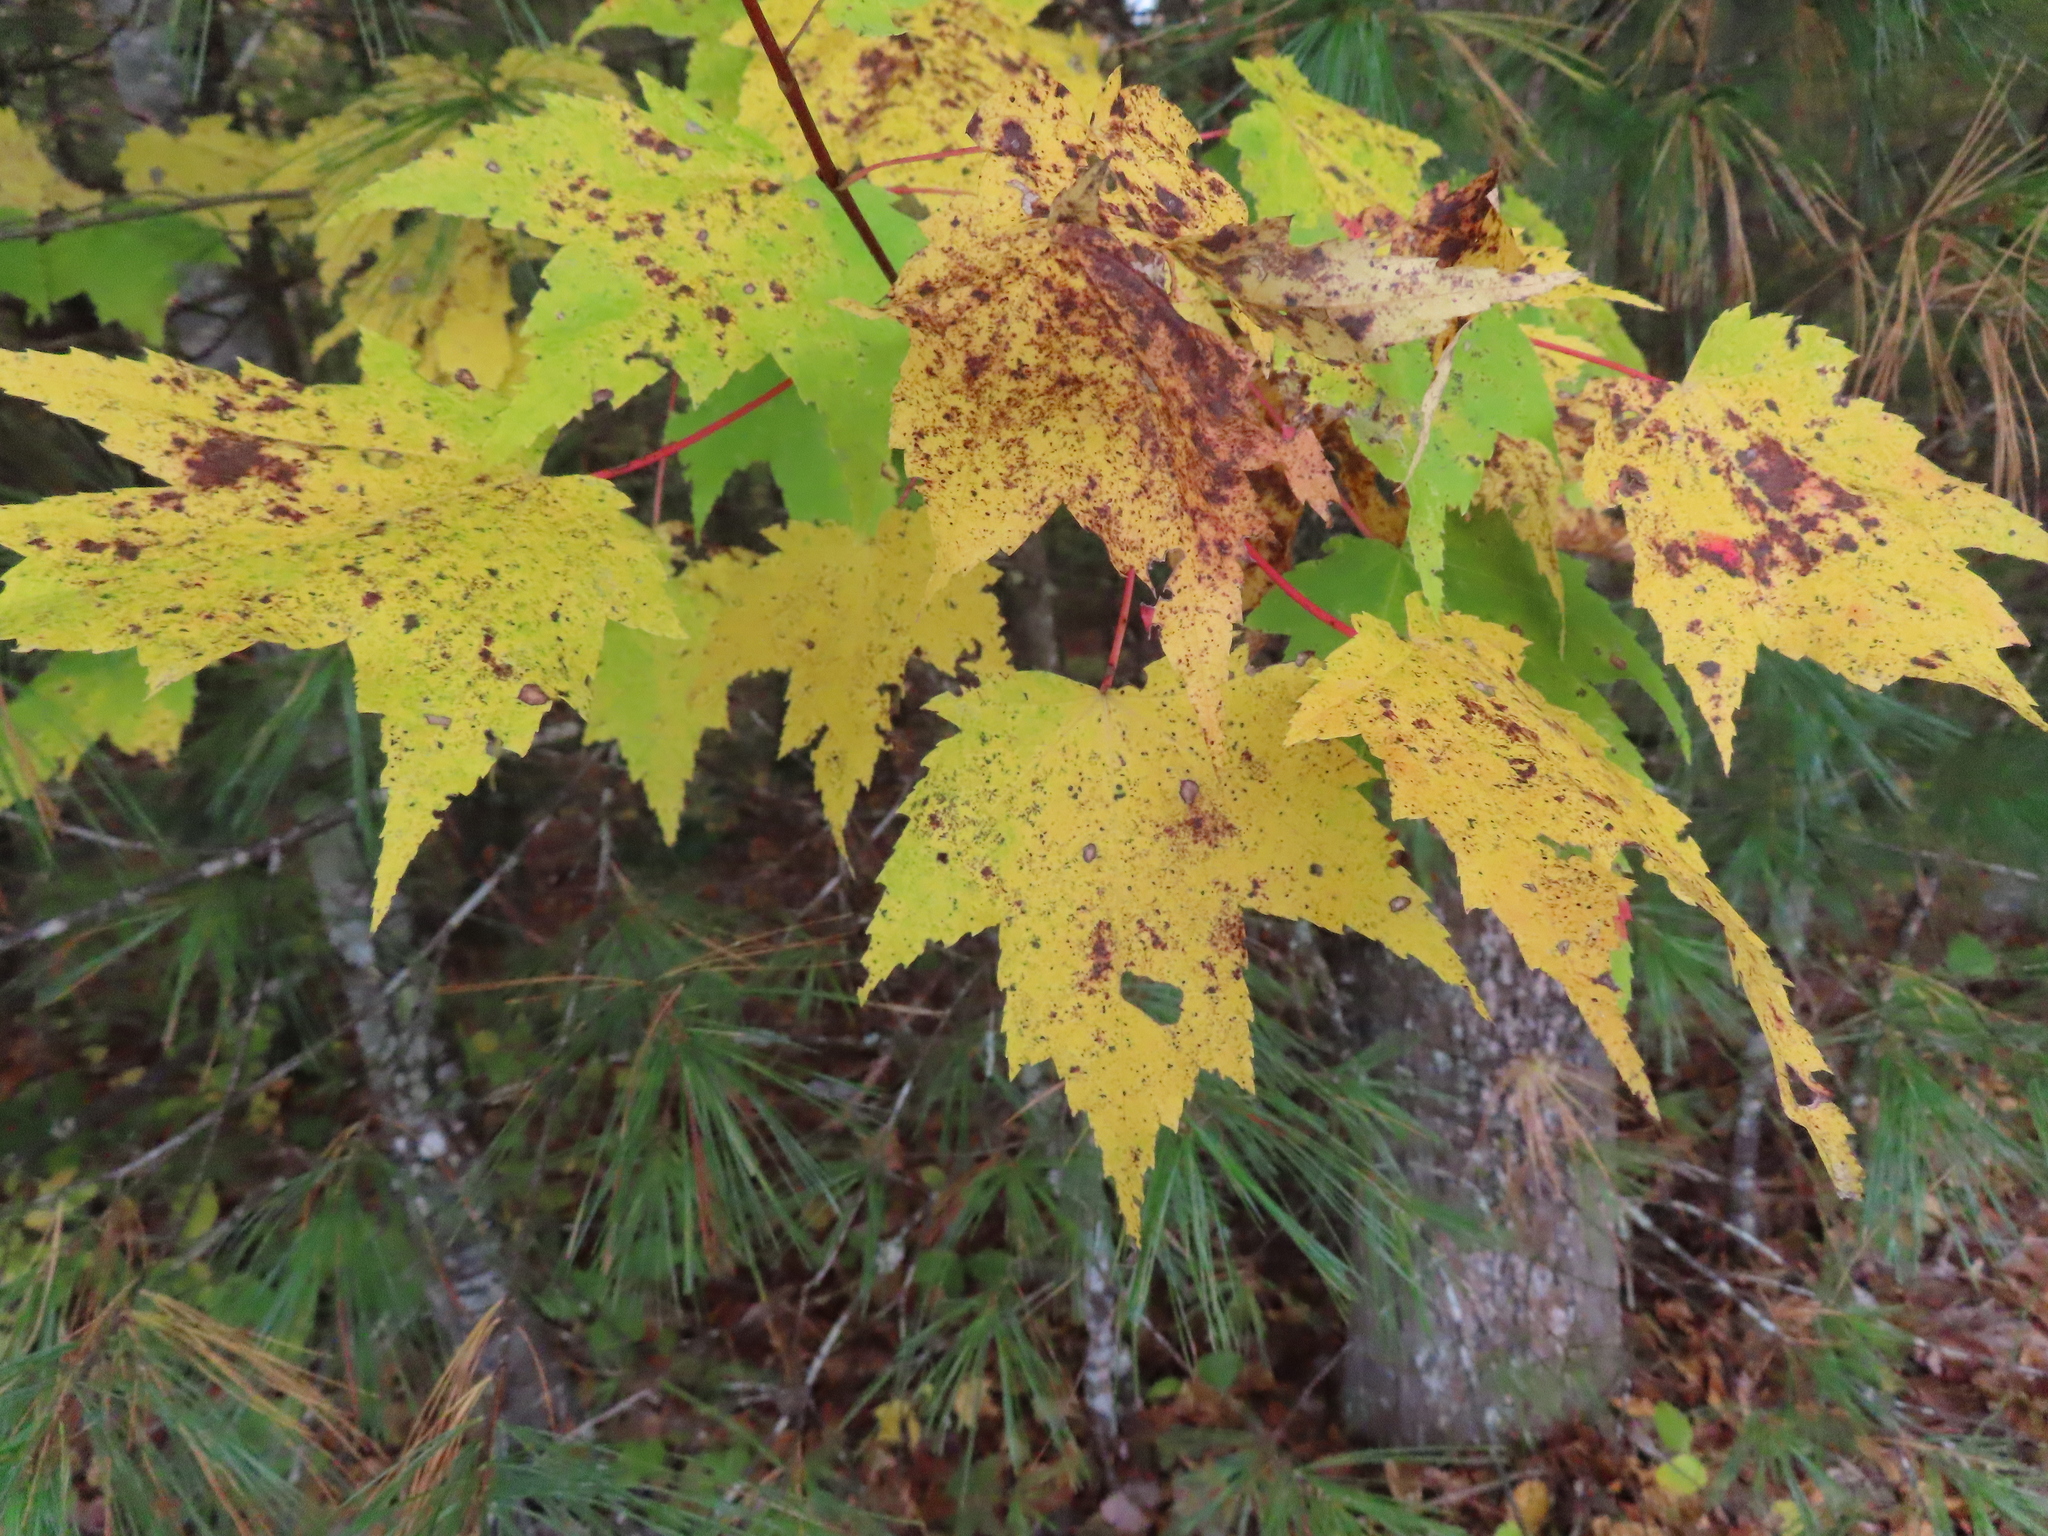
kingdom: Plantae
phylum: Tracheophyta
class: Magnoliopsida
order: Sapindales
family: Sapindaceae
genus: Acer
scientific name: Acer rubrum
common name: Red maple
